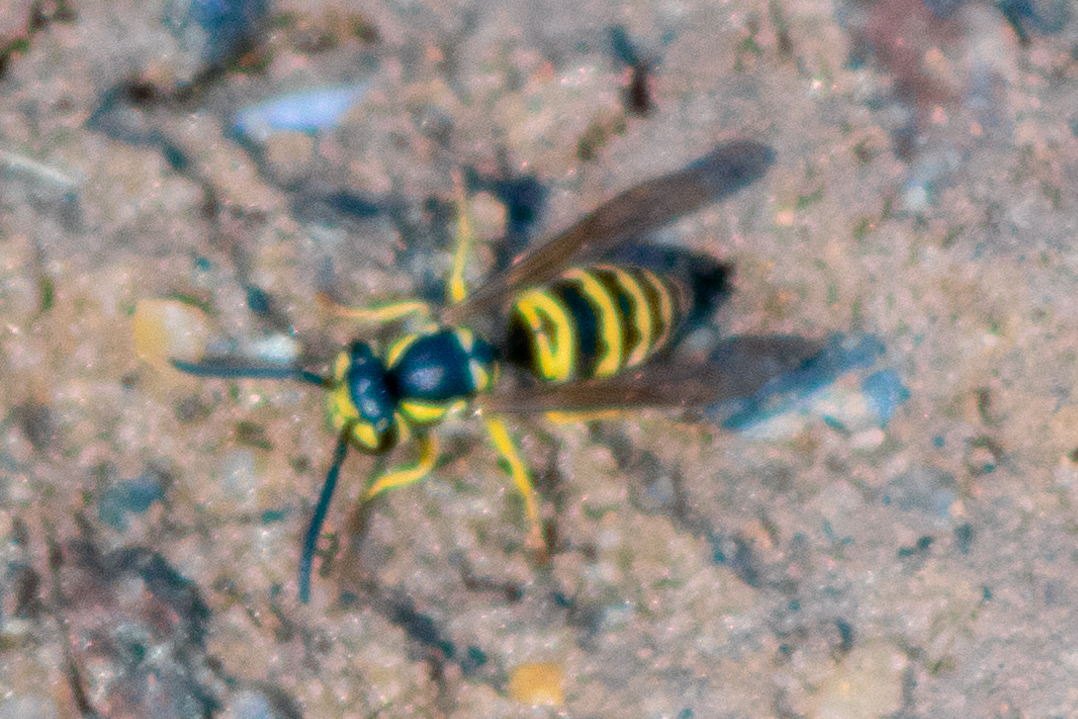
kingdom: Animalia
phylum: Arthropoda
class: Insecta
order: Hymenoptera
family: Vespidae
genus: Vespula
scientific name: Vespula maculifrons
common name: Eastern yellowjacket
